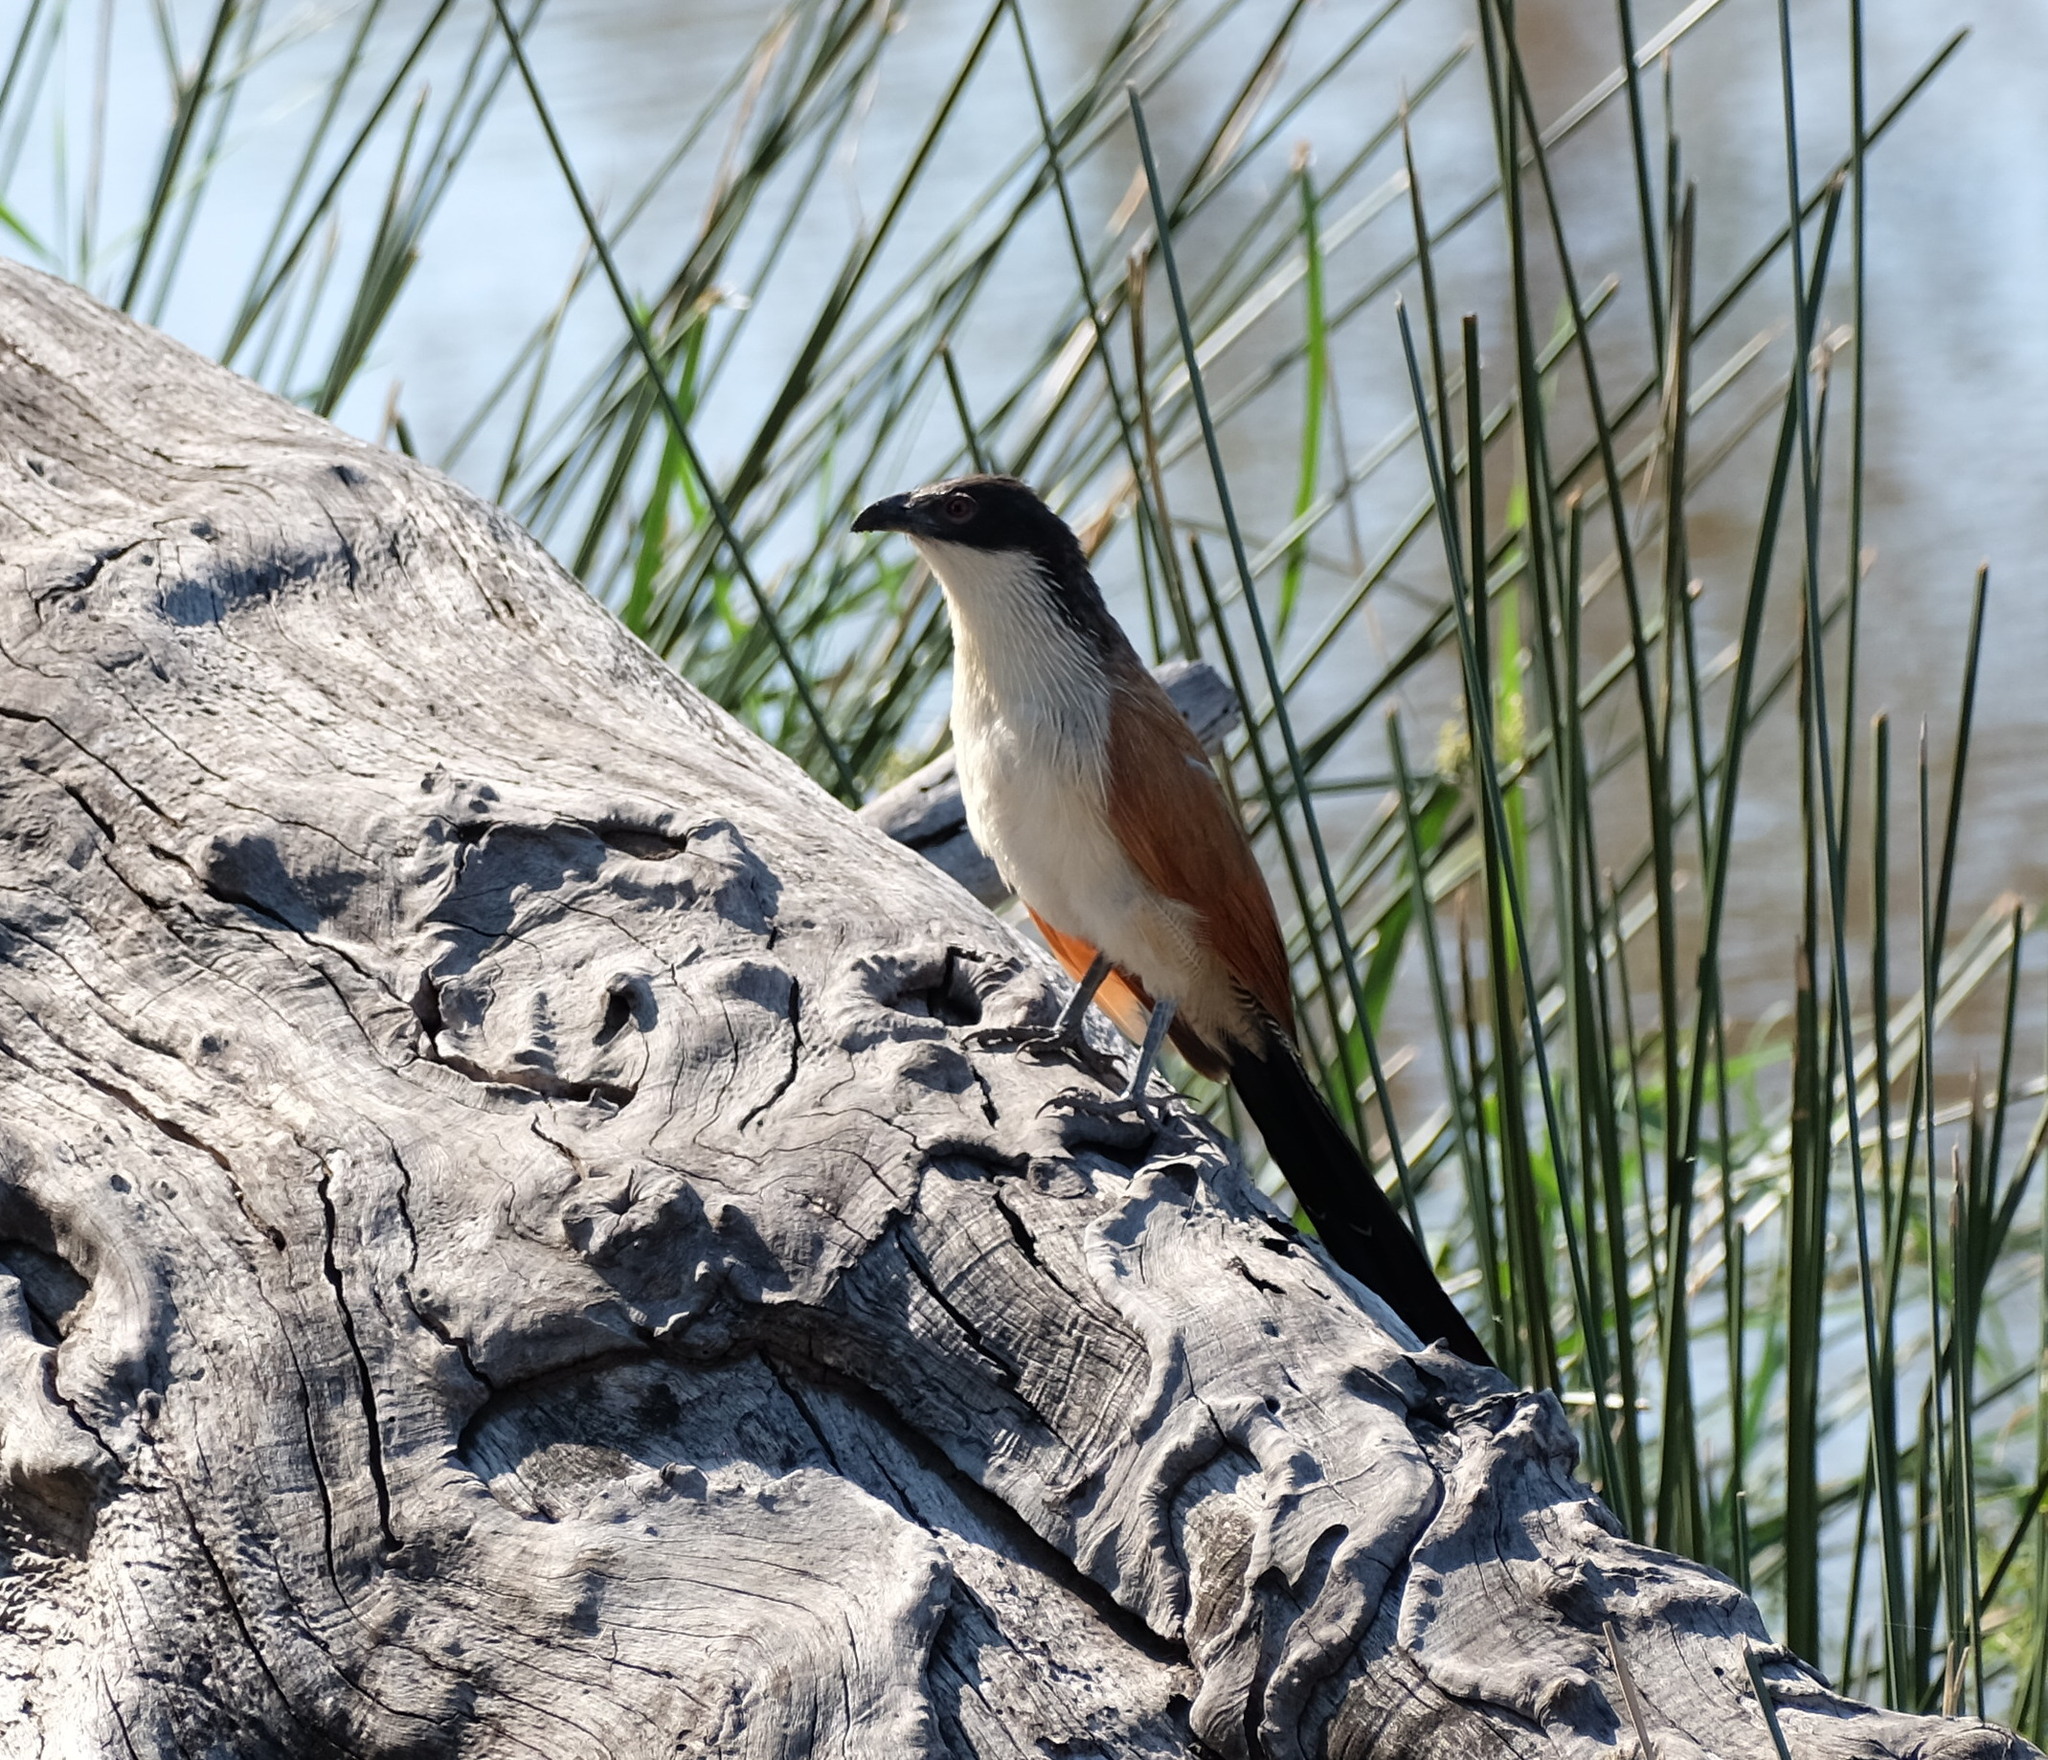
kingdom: Animalia
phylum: Chordata
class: Aves
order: Cuculiformes
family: Cuculidae
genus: Centropus
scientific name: Centropus superciliosus
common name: White-browed coucal
